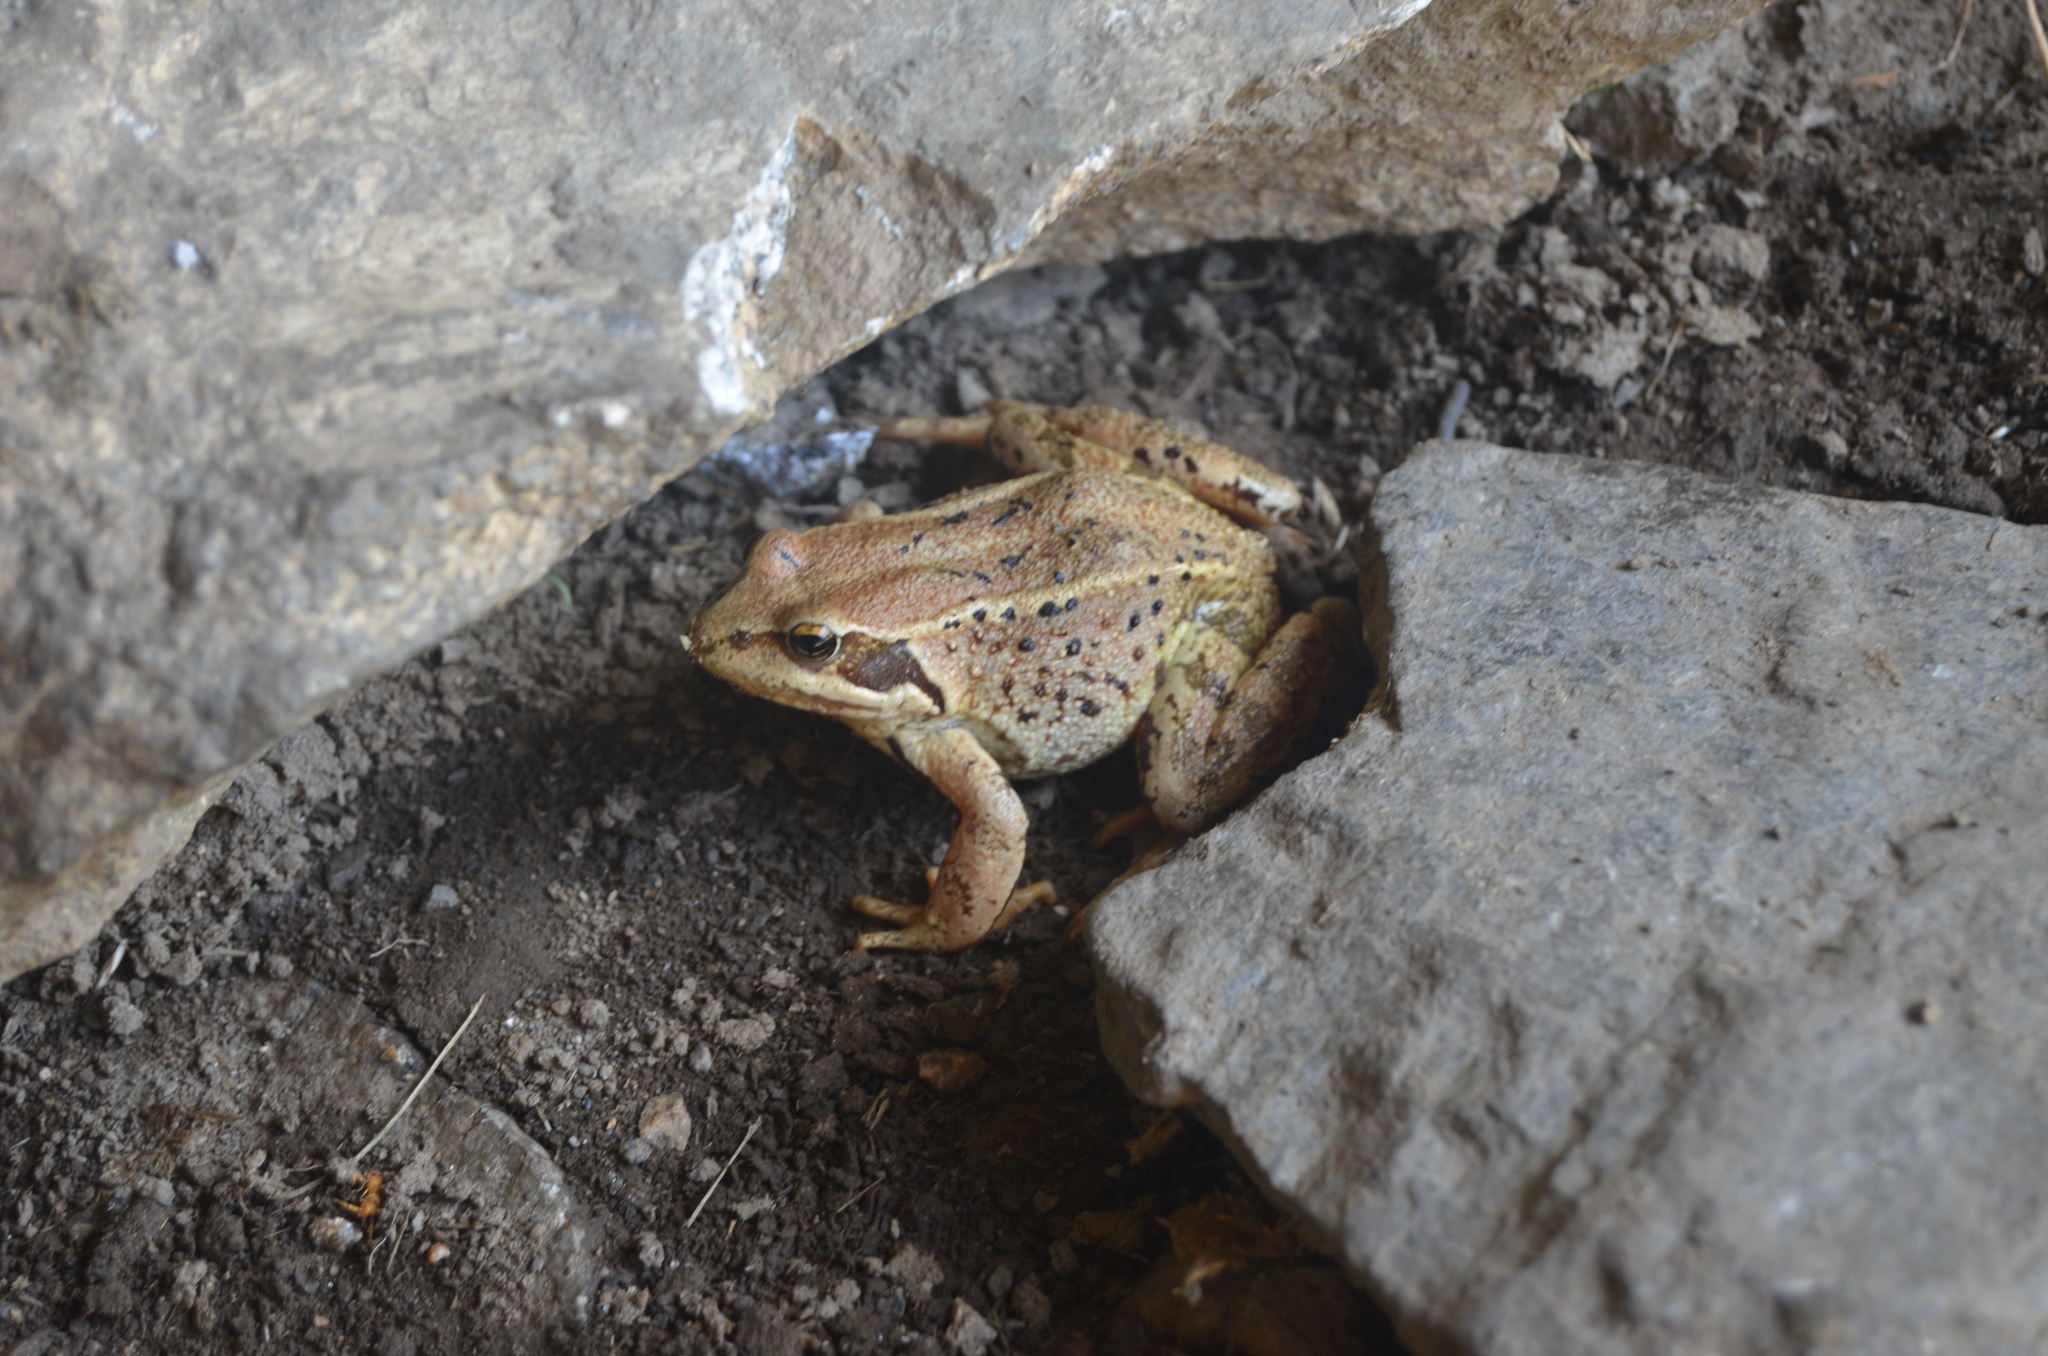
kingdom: Animalia
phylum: Chordata
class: Amphibia
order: Anura
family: Ranidae
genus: Rana
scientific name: Rana temporaria
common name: Common frog
